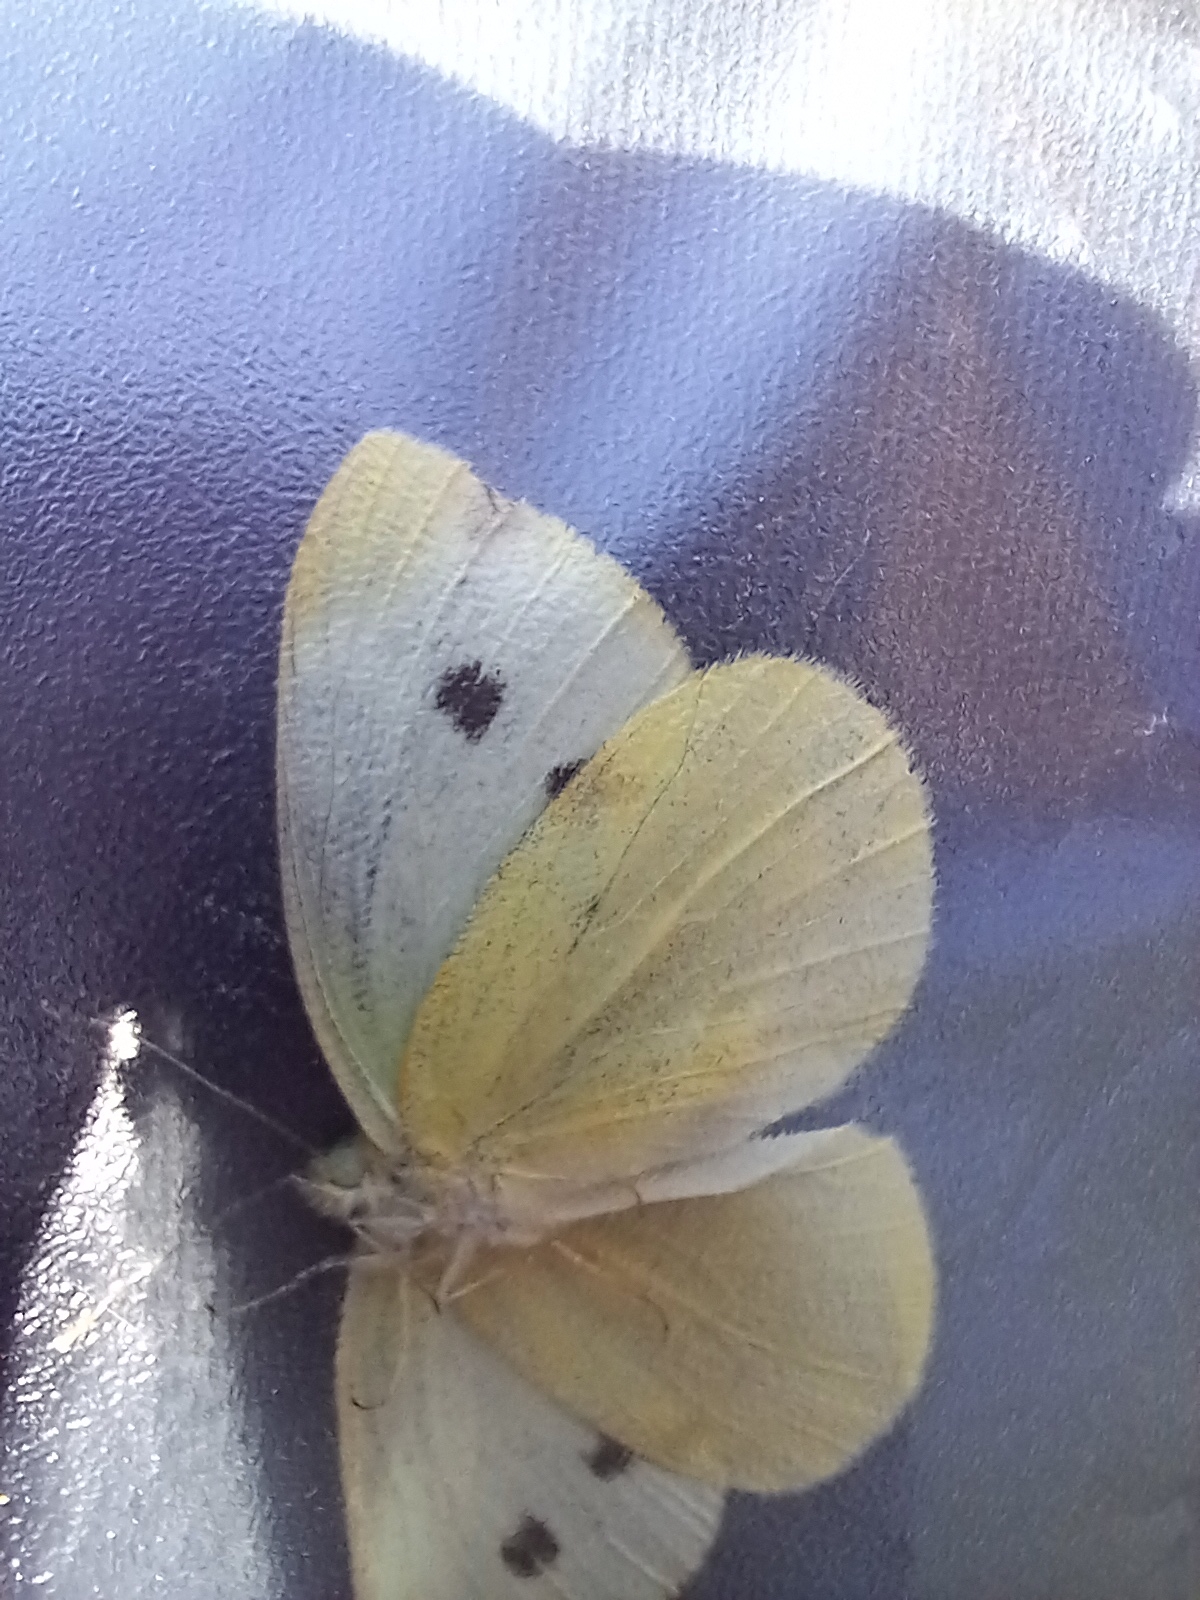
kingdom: Animalia
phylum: Arthropoda
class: Insecta
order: Lepidoptera
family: Pieridae
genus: Pieris
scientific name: Pieris rapae
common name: Small white
